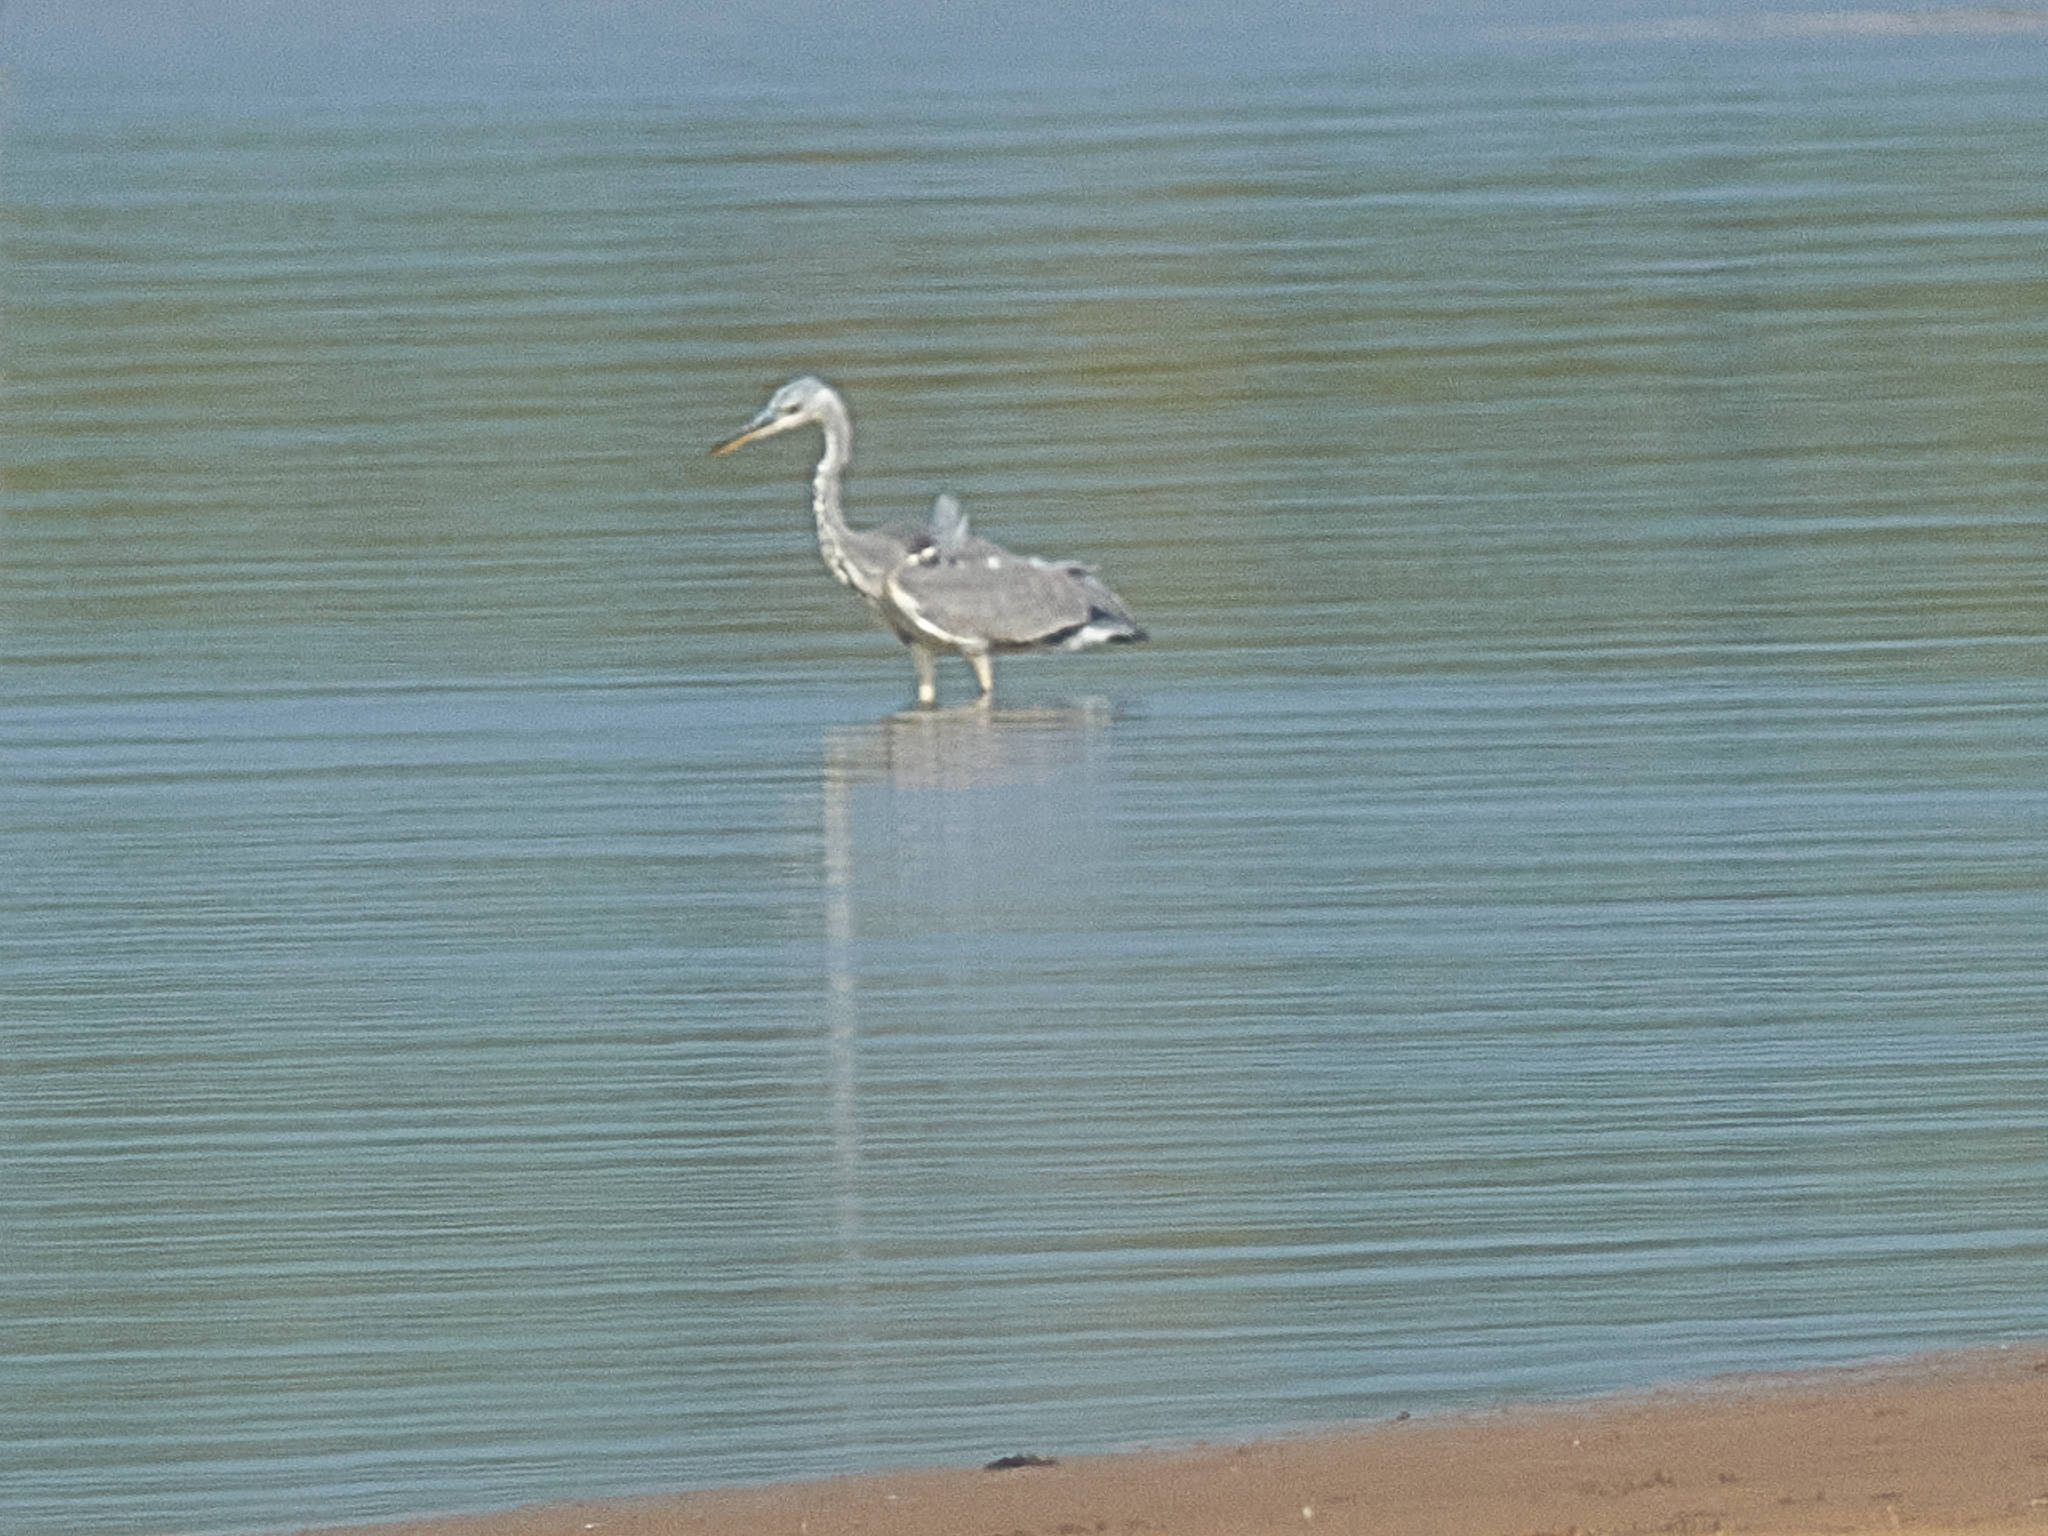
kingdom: Animalia
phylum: Chordata
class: Aves
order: Pelecaniformes
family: Ardeidae
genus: Ardea
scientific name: Ardea cinerea
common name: Grey heron
